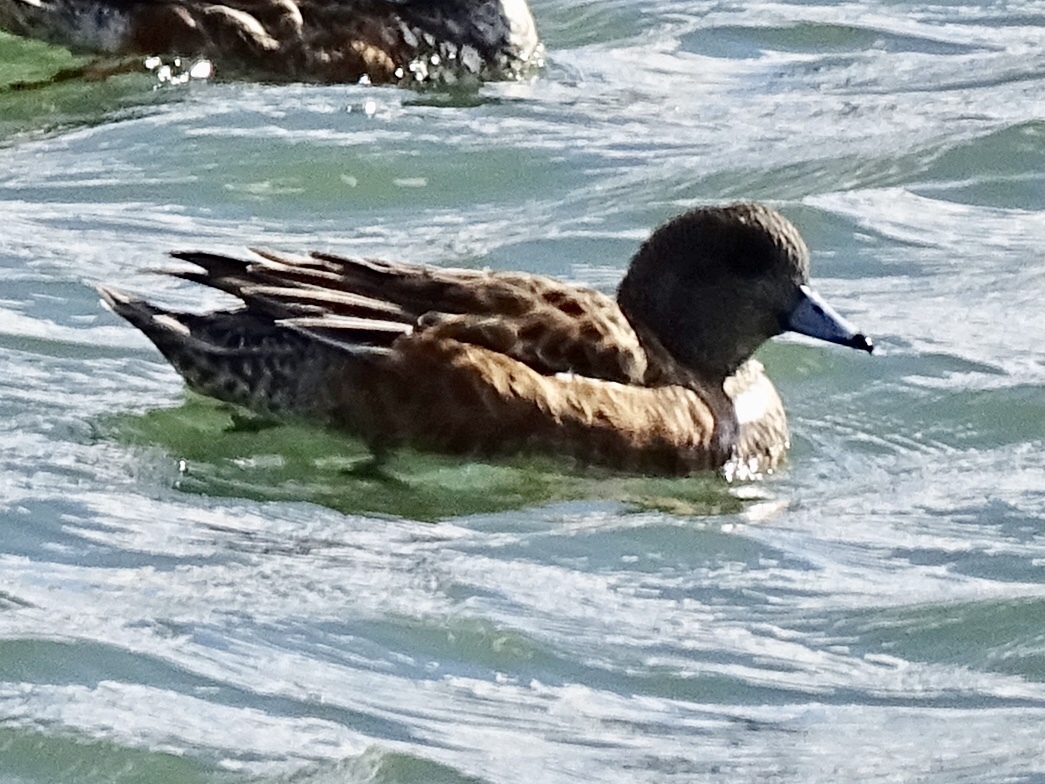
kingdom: Animalia
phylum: Chordata
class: Aves
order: Anseriformes
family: Anatidae
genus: Mareca
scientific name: Mareca americana
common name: American wigeon
